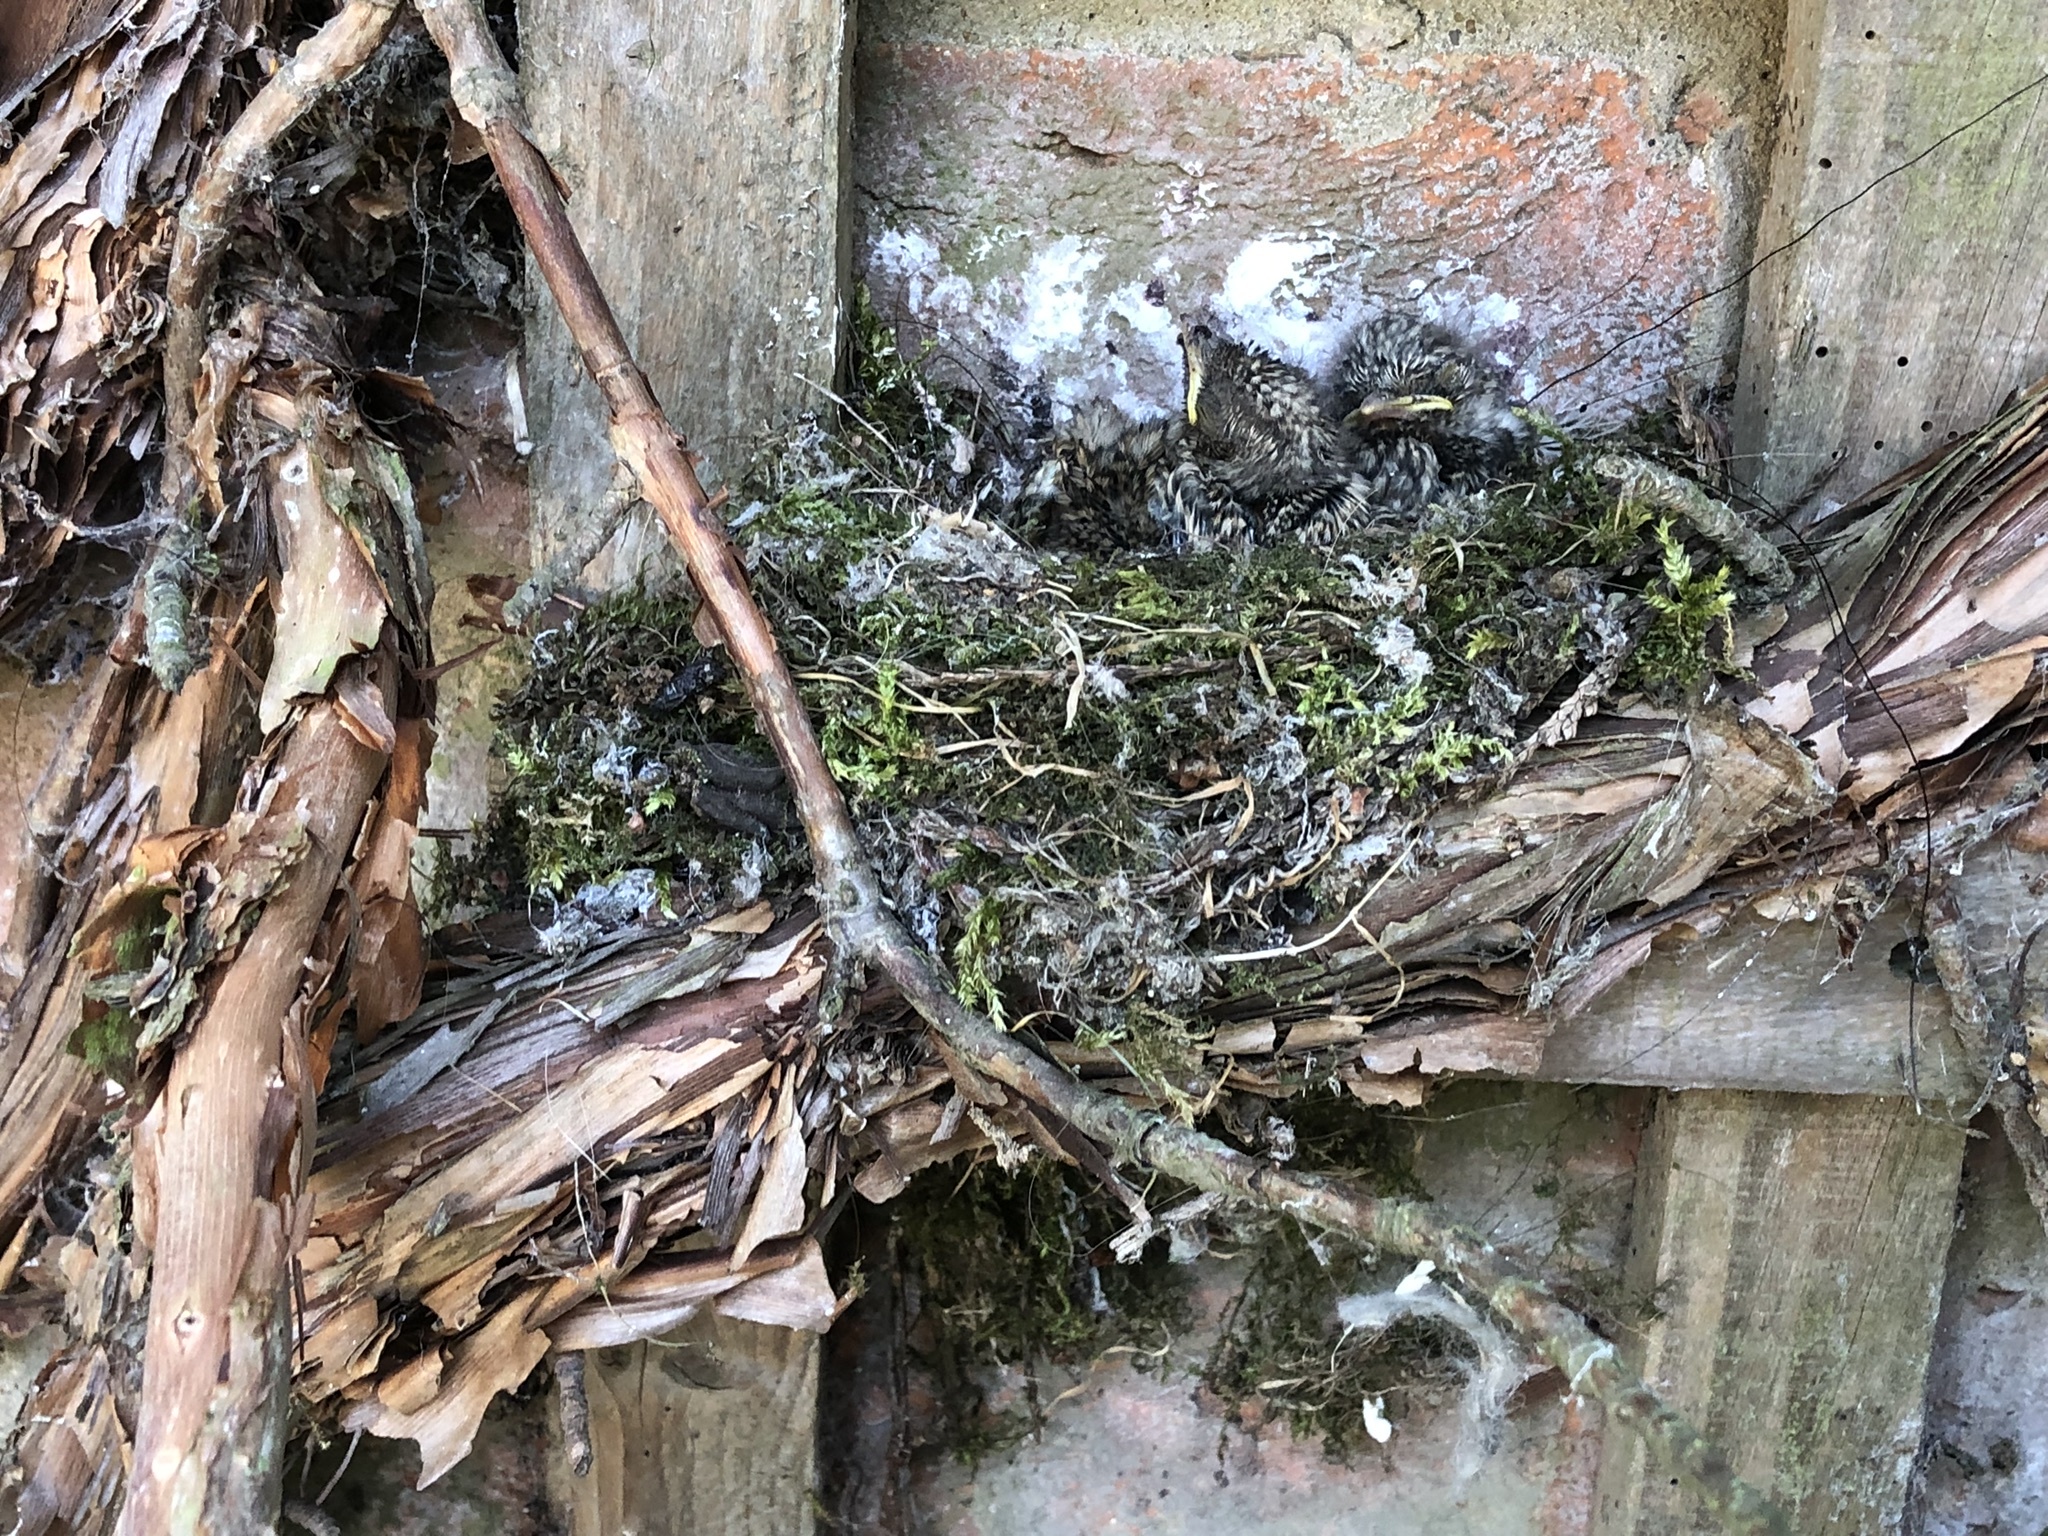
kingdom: Animalia
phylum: Chordata
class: Aves
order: Passeriformes
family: Muscicapidae
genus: Muscicapa
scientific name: Muscicapa striata
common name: Spotted flycatcher
